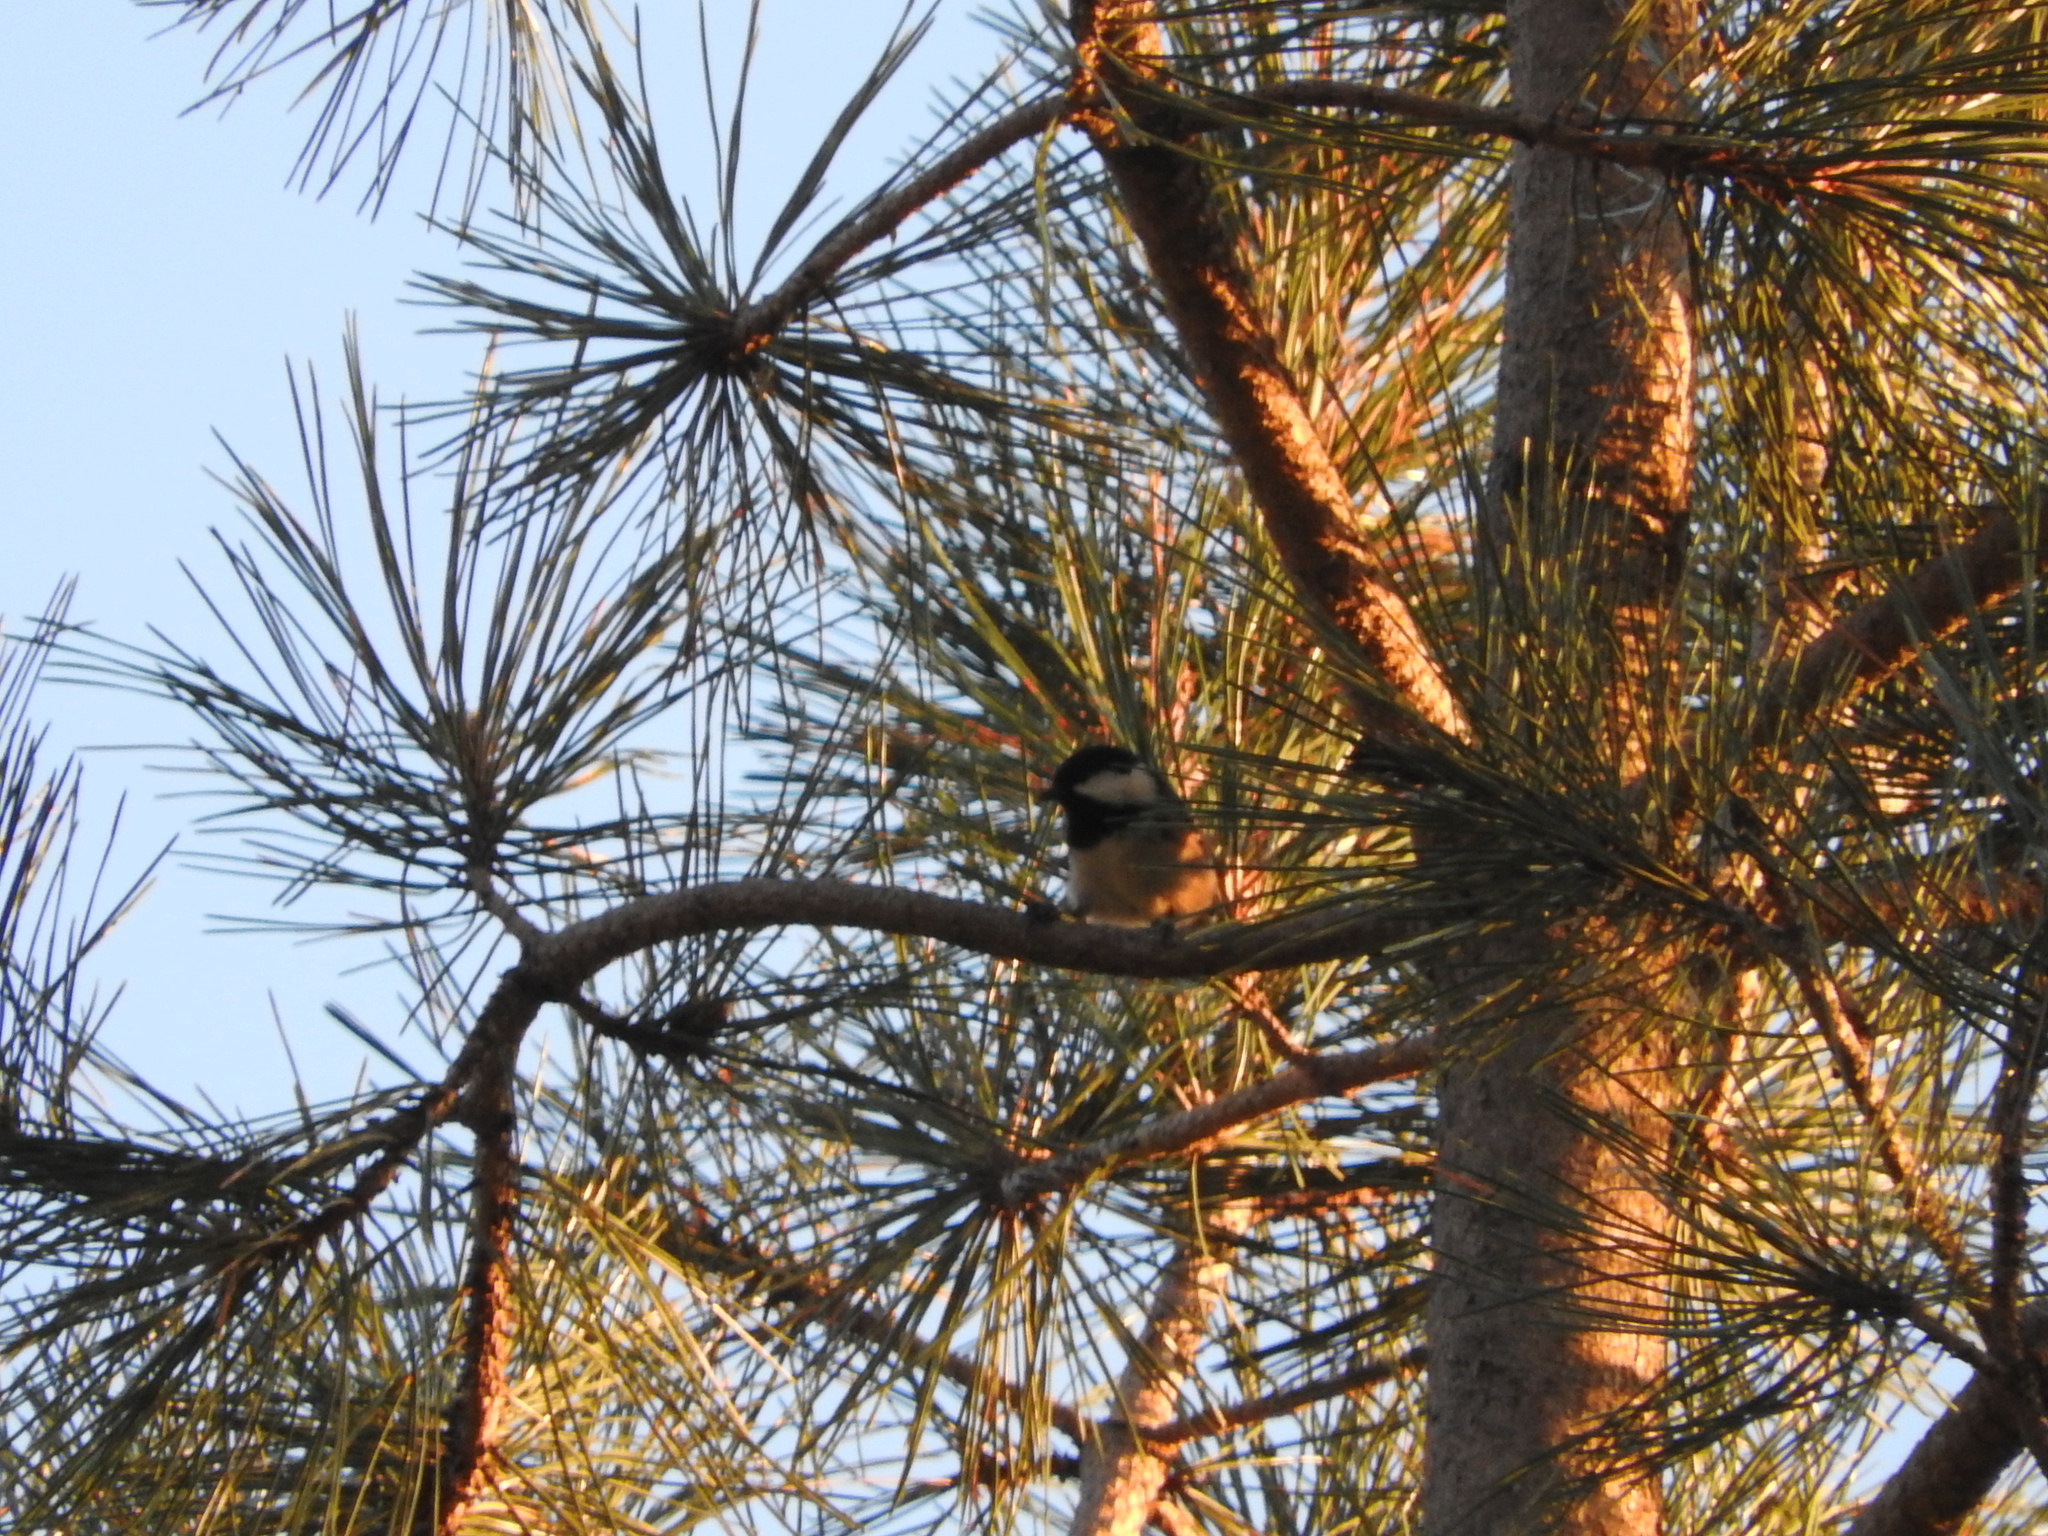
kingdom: Animalia
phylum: Chordata
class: Aves
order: Passeriformes
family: Paridae
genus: Periparus
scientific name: Periparus ater
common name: Coal tit
